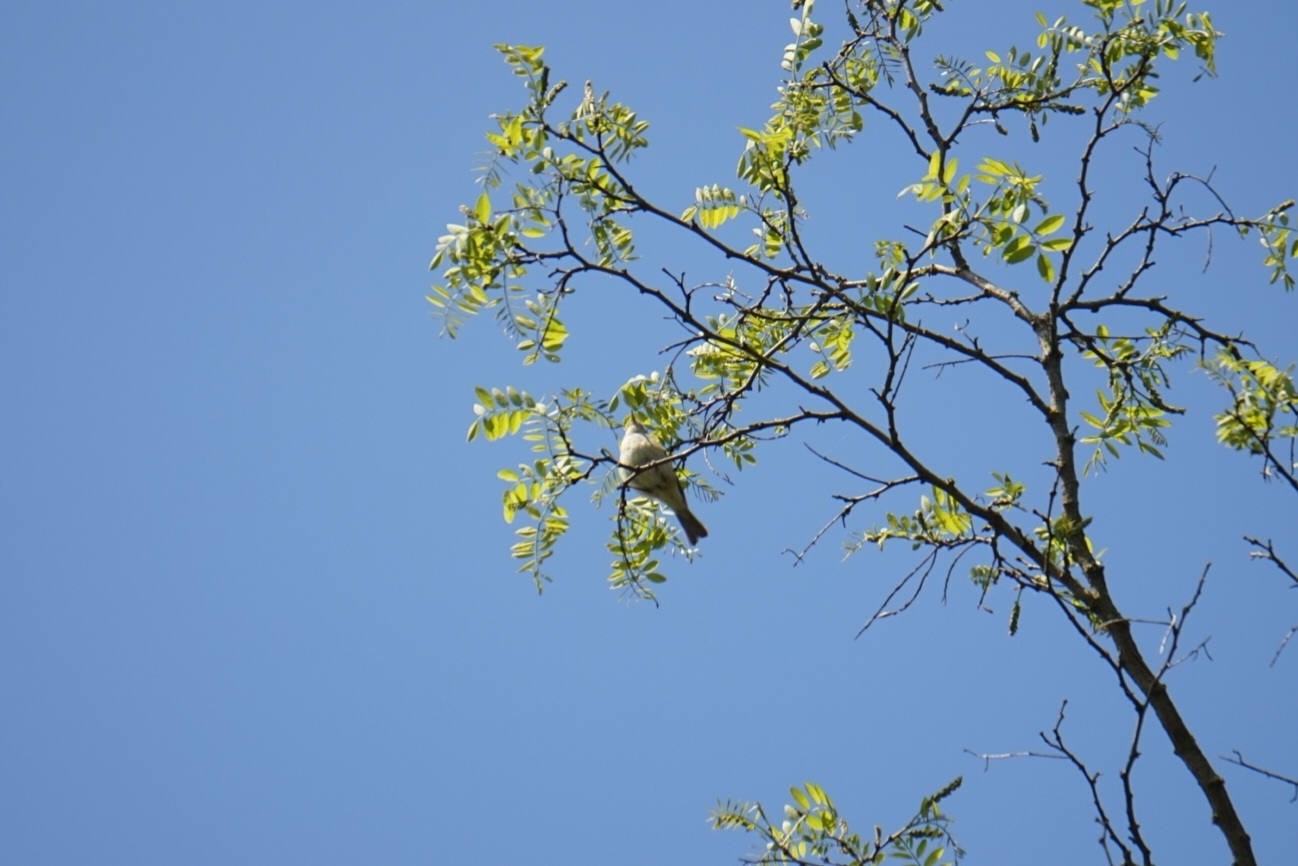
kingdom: Animalia
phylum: Chordata
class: Aves
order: Passeriformes
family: Phylloscopidae
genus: Phylloscopus
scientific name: Phylloscopus collybita
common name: Common chiffchaff
